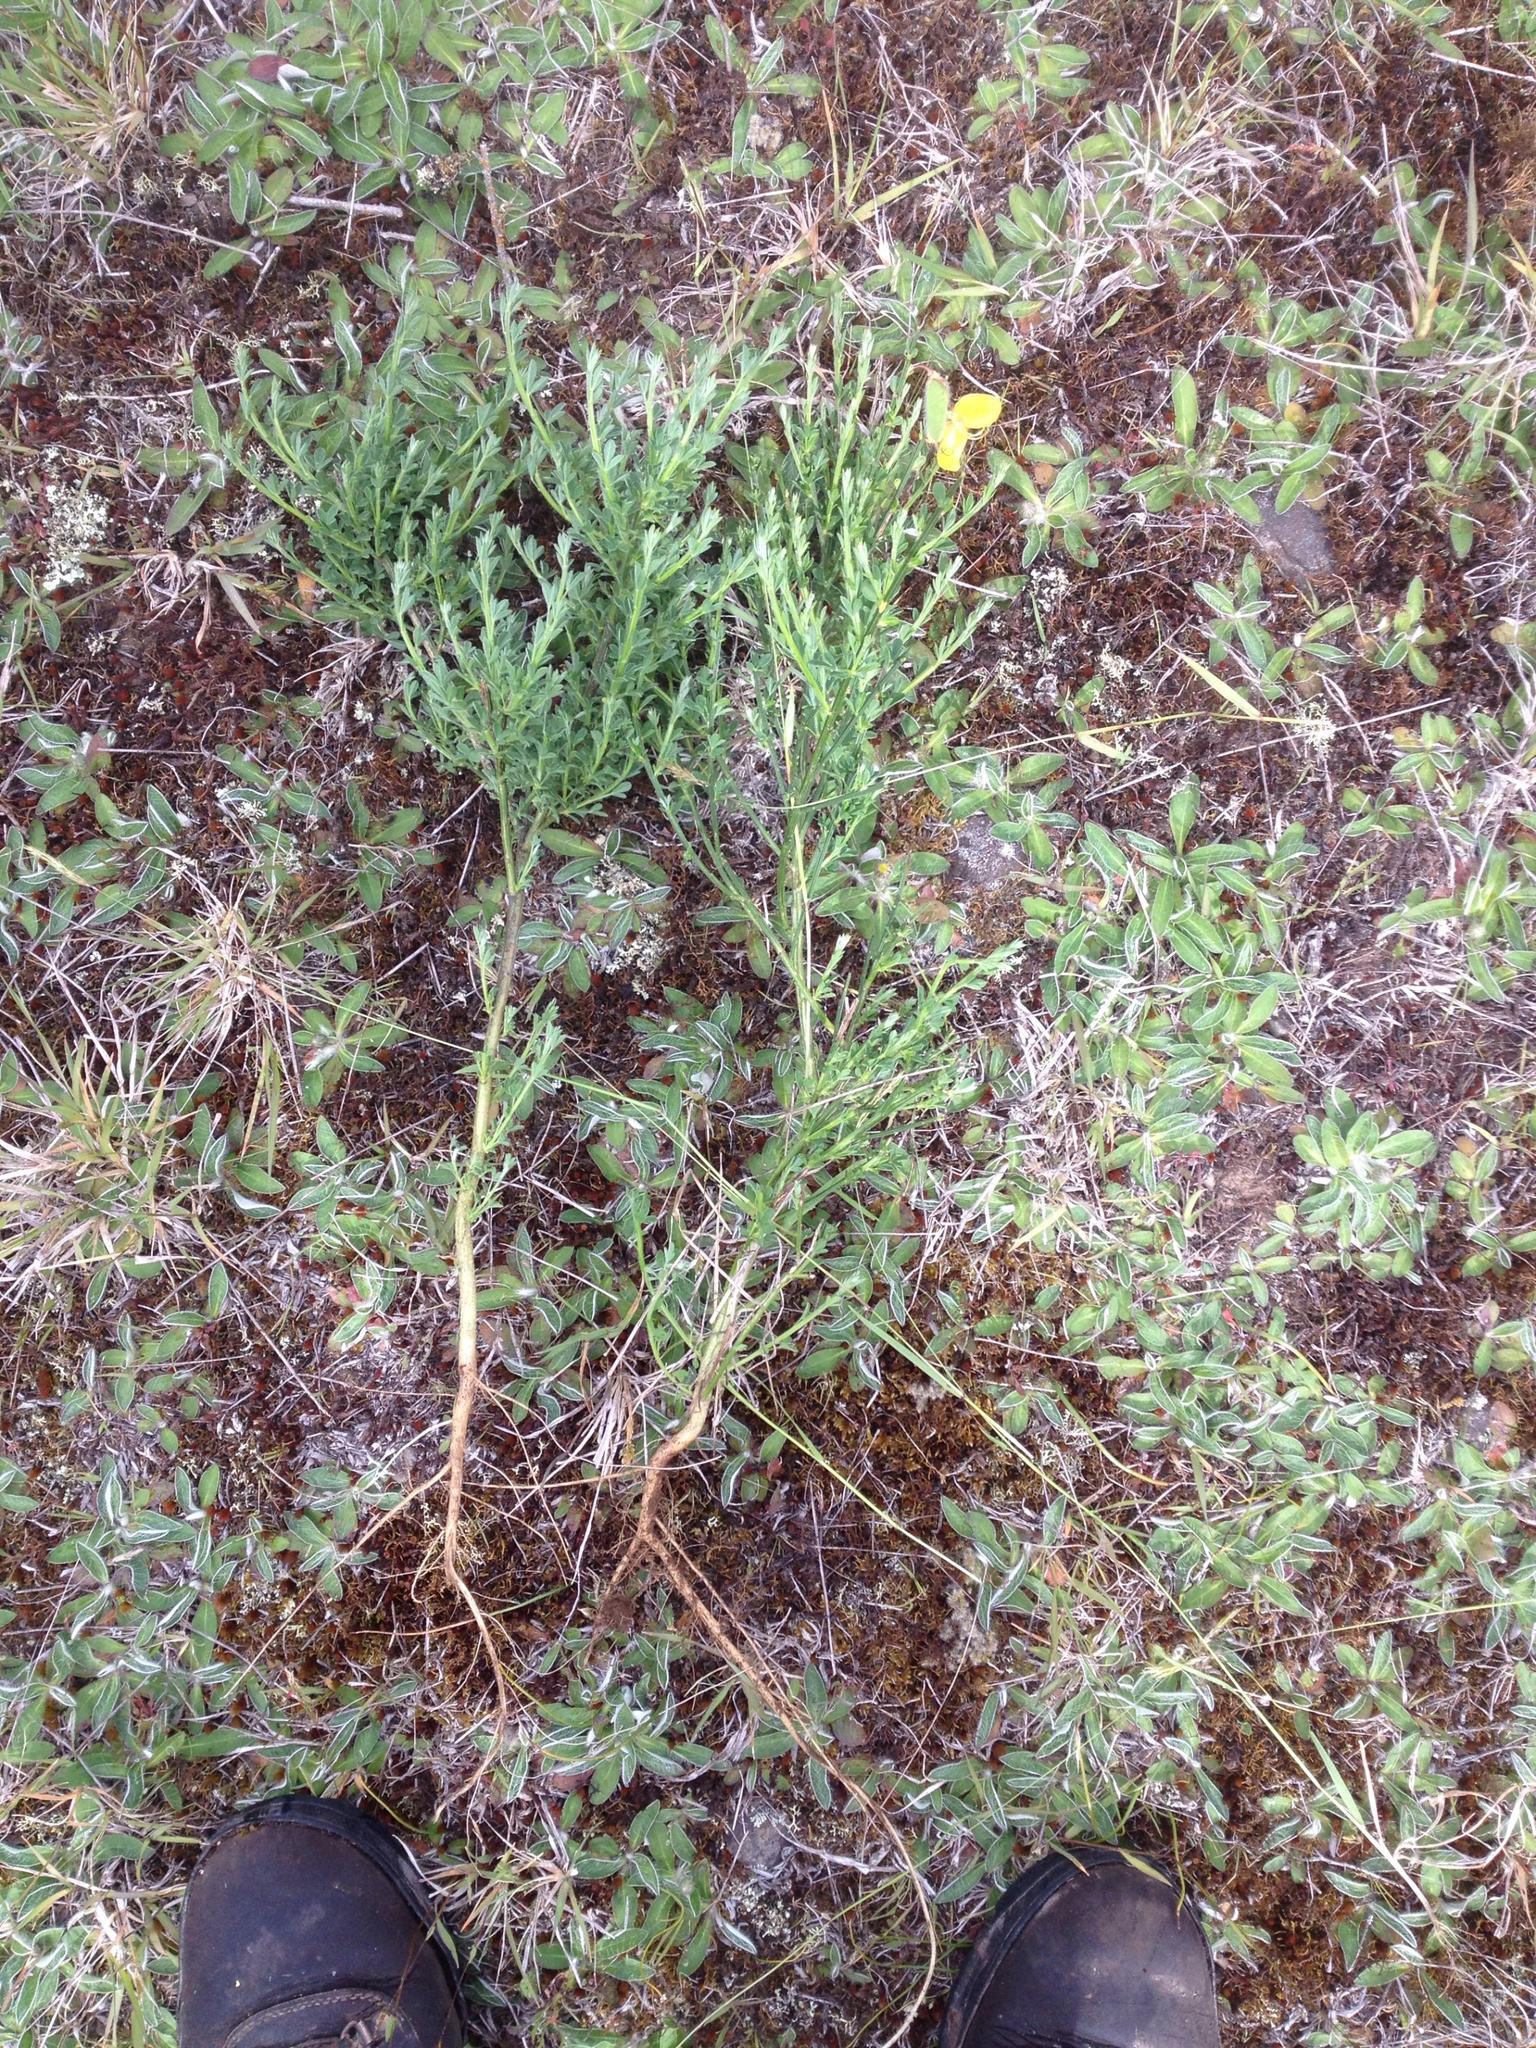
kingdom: Plantae
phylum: Tracheophyta
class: Magnoliopsida
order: Fabales
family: Fabaceae
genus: Cytisus
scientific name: Cytisus scoparius
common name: Scotch broom
